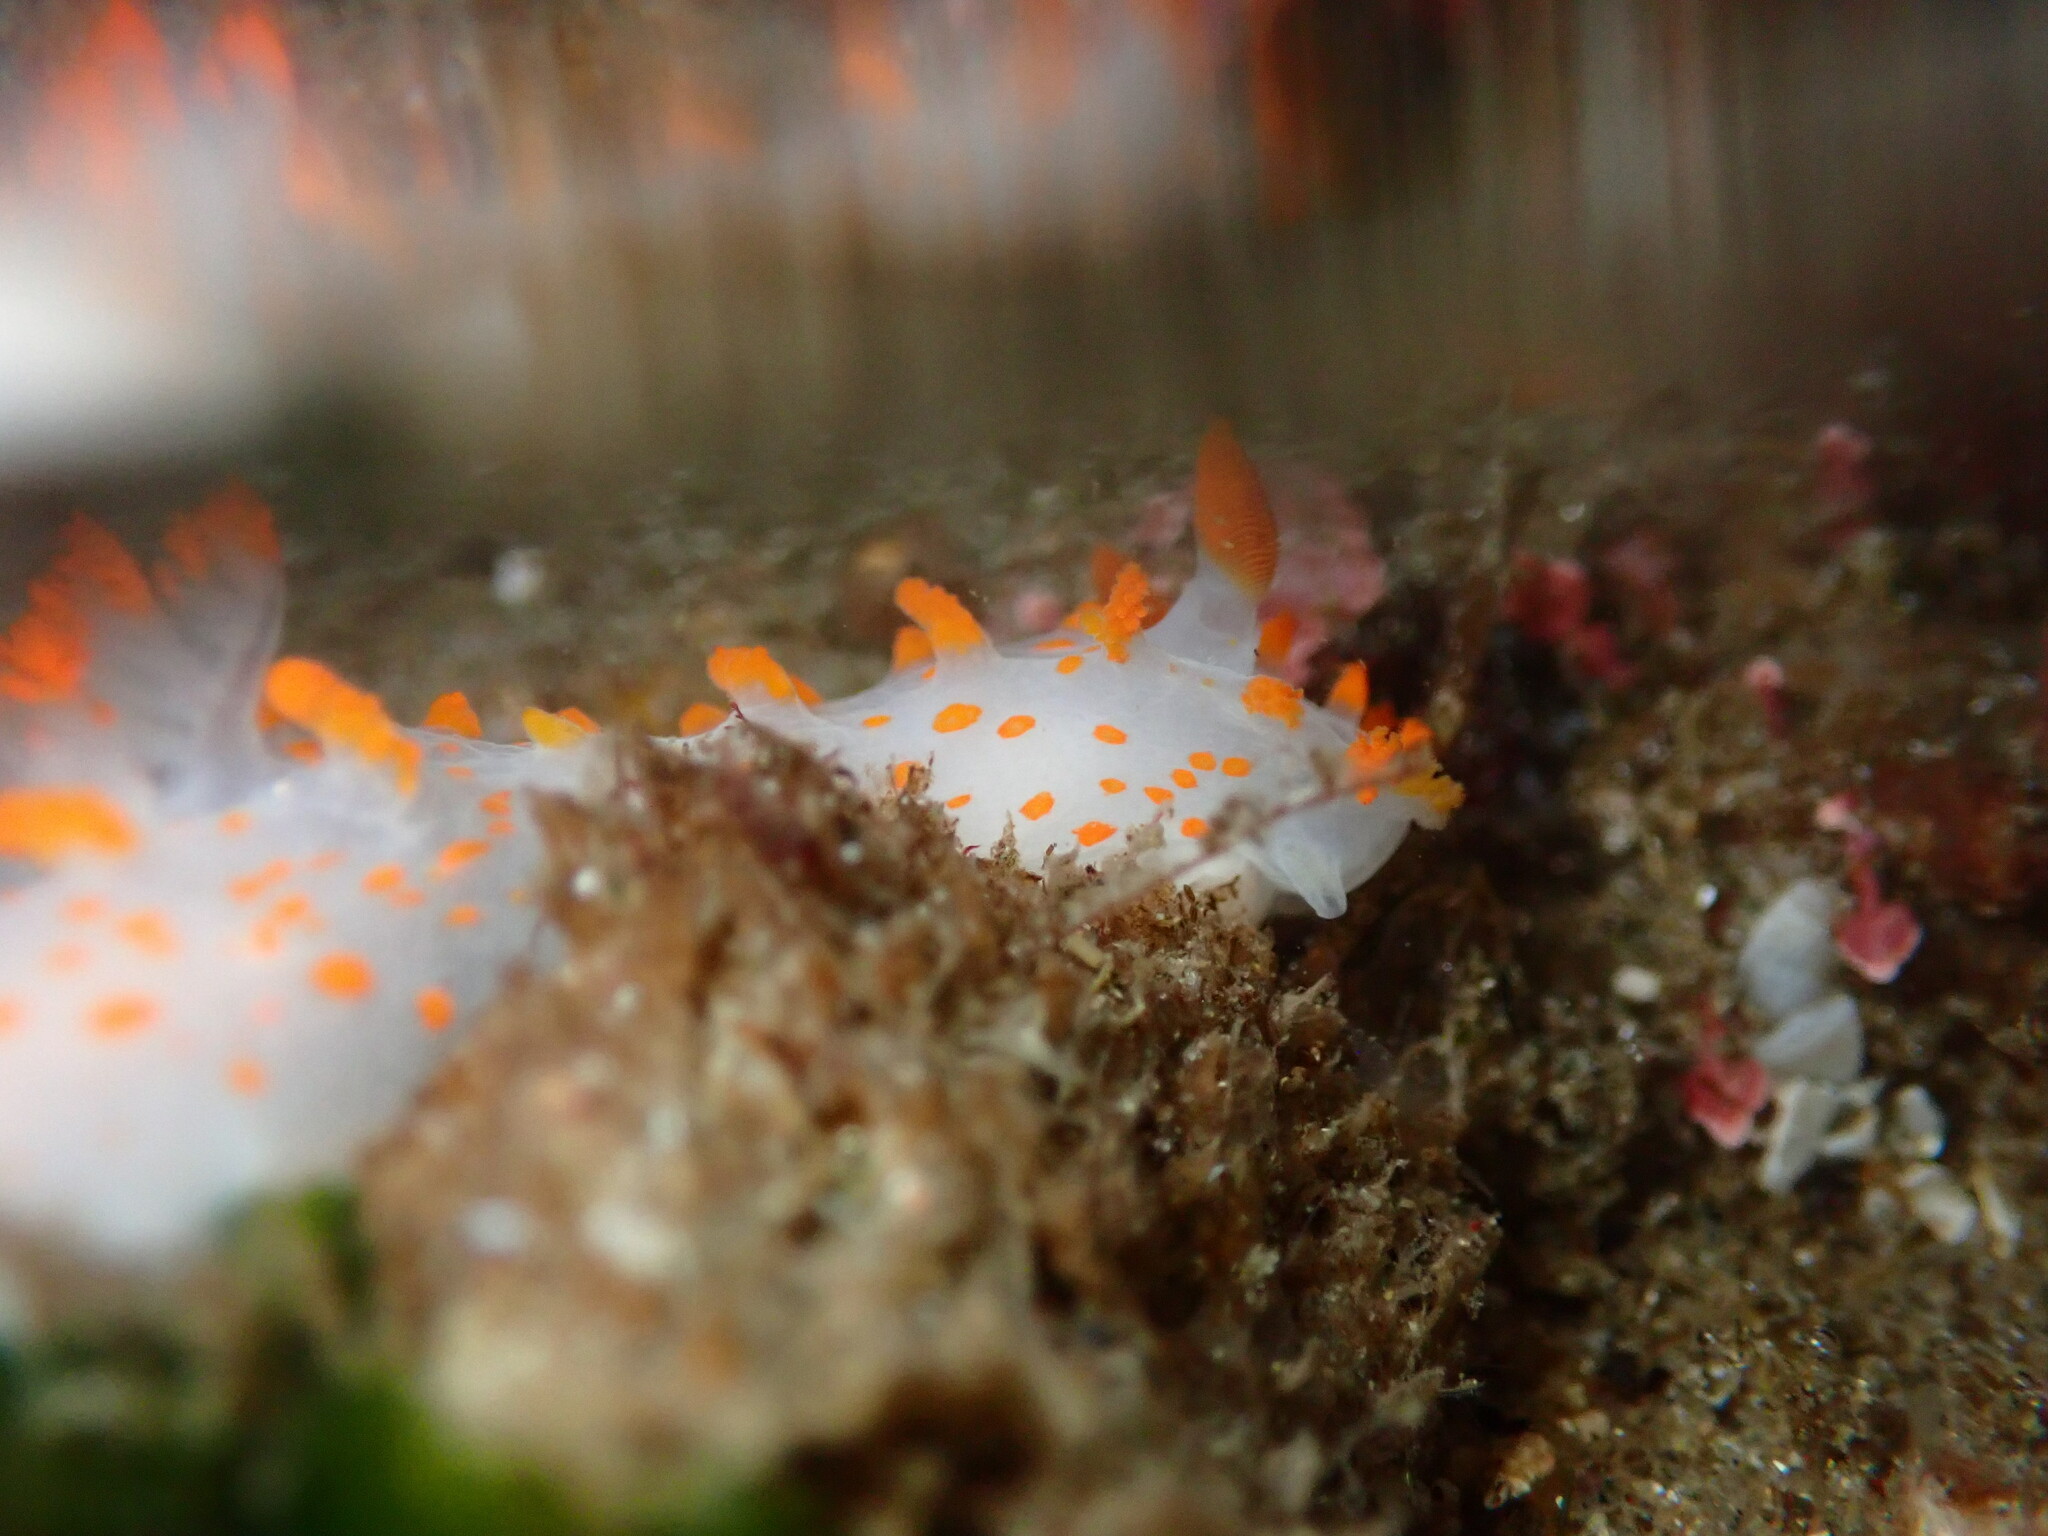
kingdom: Animalia
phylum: Mollusca
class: Gastropoda
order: Nudibranchia
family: Polyceridae
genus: Triopha
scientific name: Triopha catalinae
